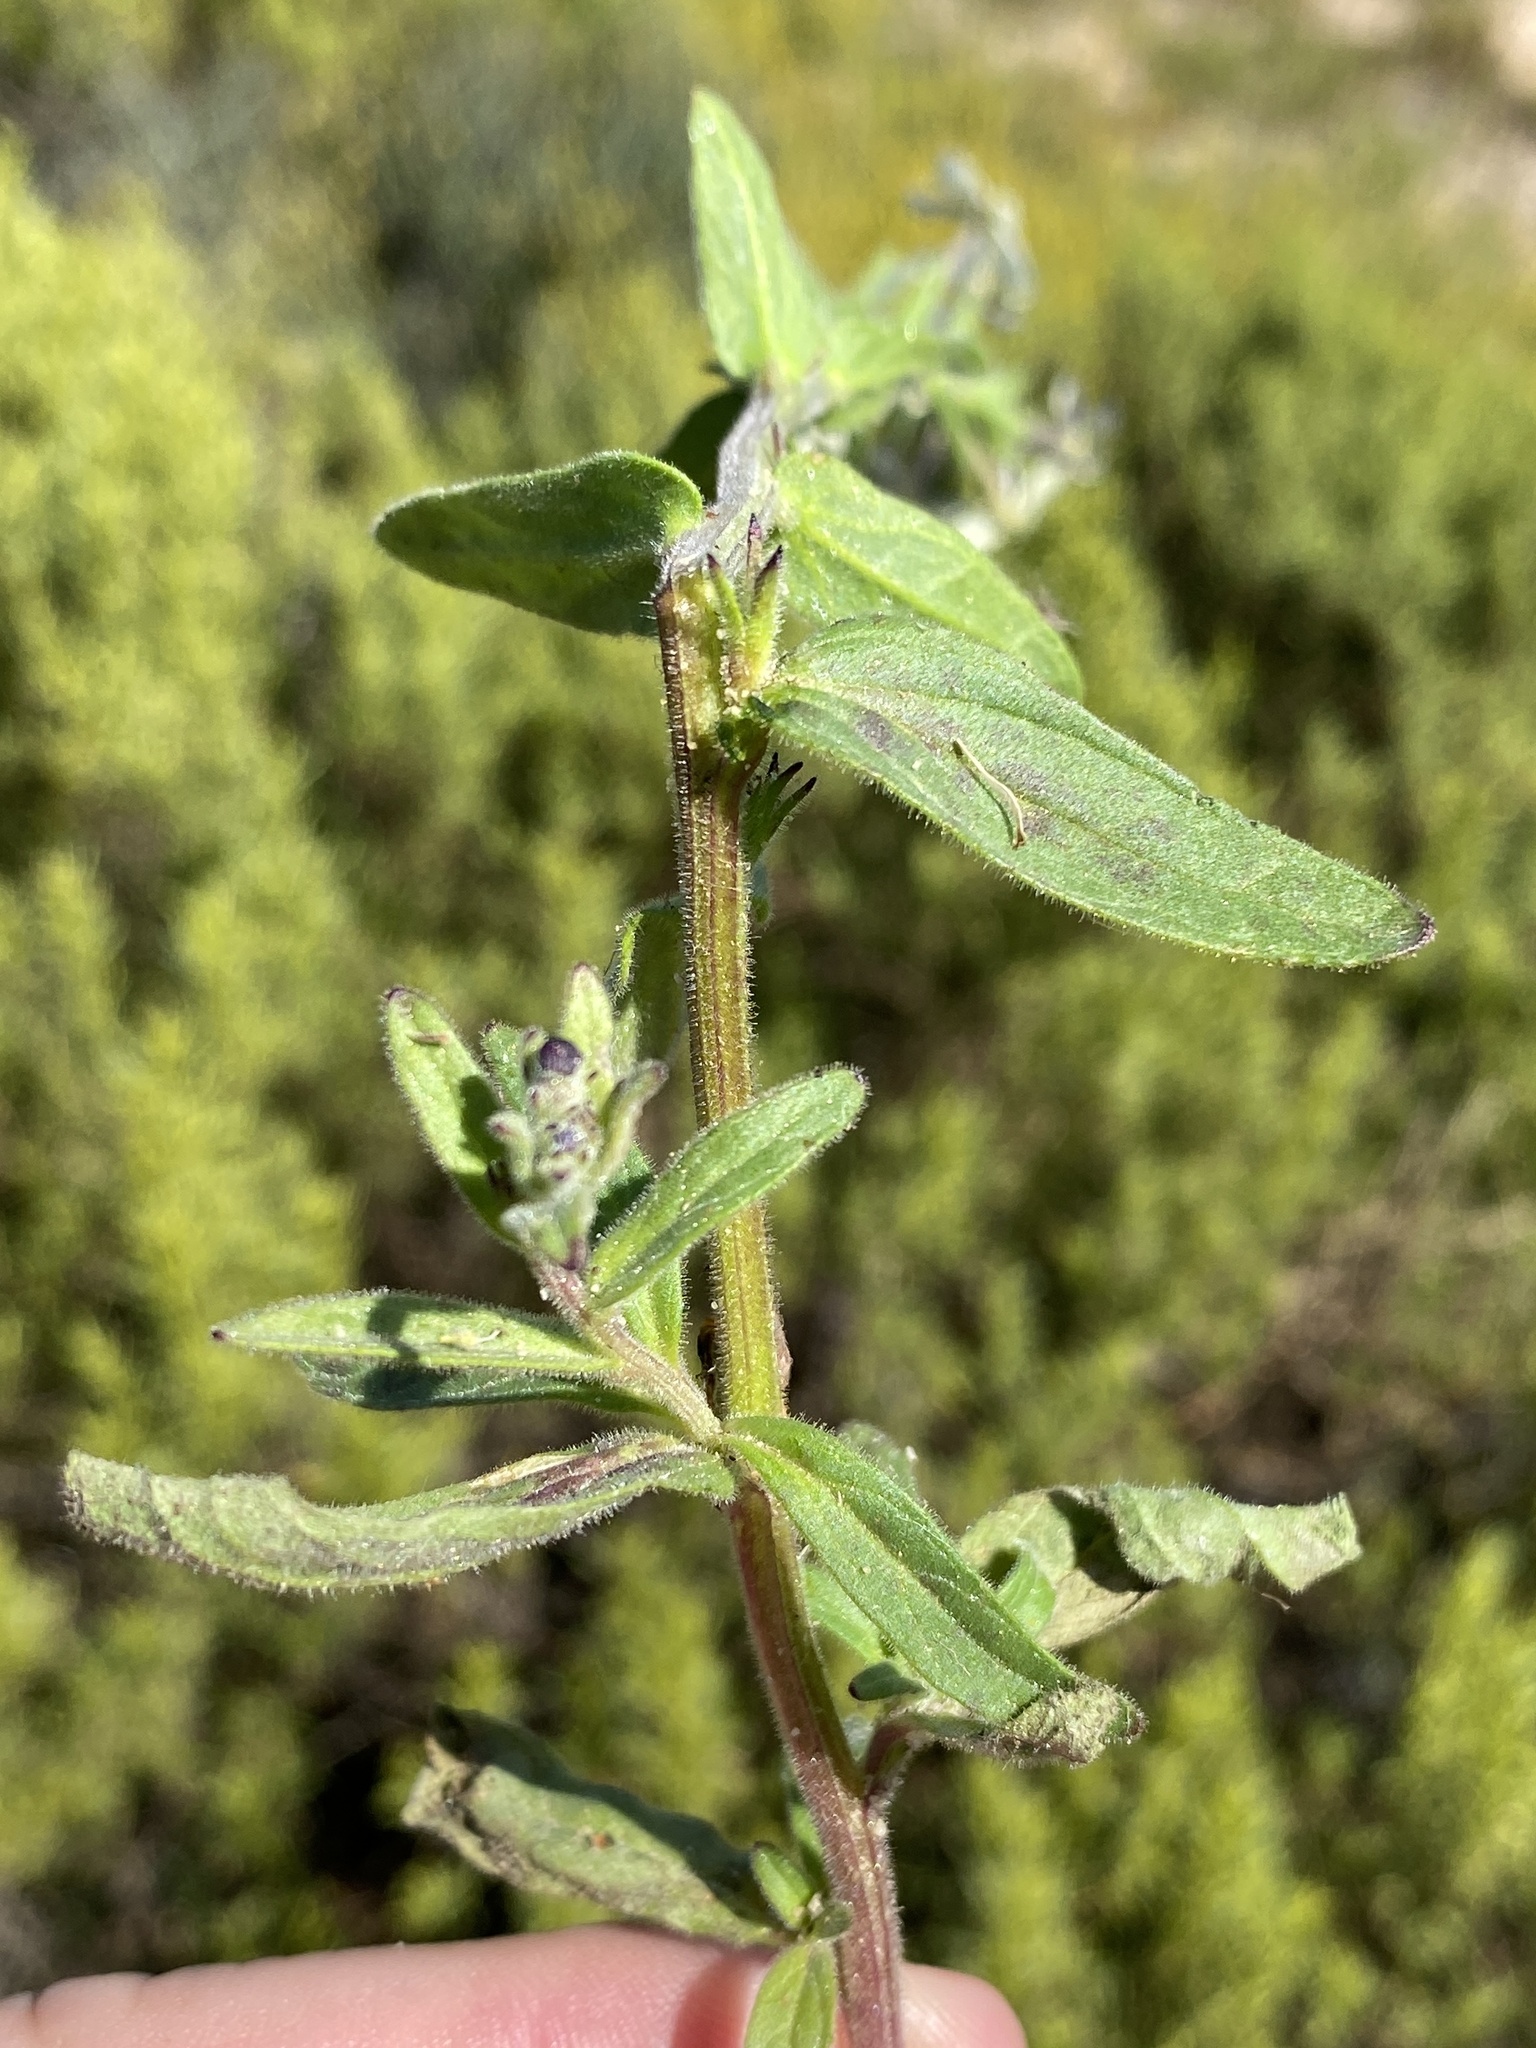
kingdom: Plantae
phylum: Tracheophyta
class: Magnoliopsida
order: Lamiales
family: Scrophulariaceae
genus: Lyperia
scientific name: Lyperia tristis
